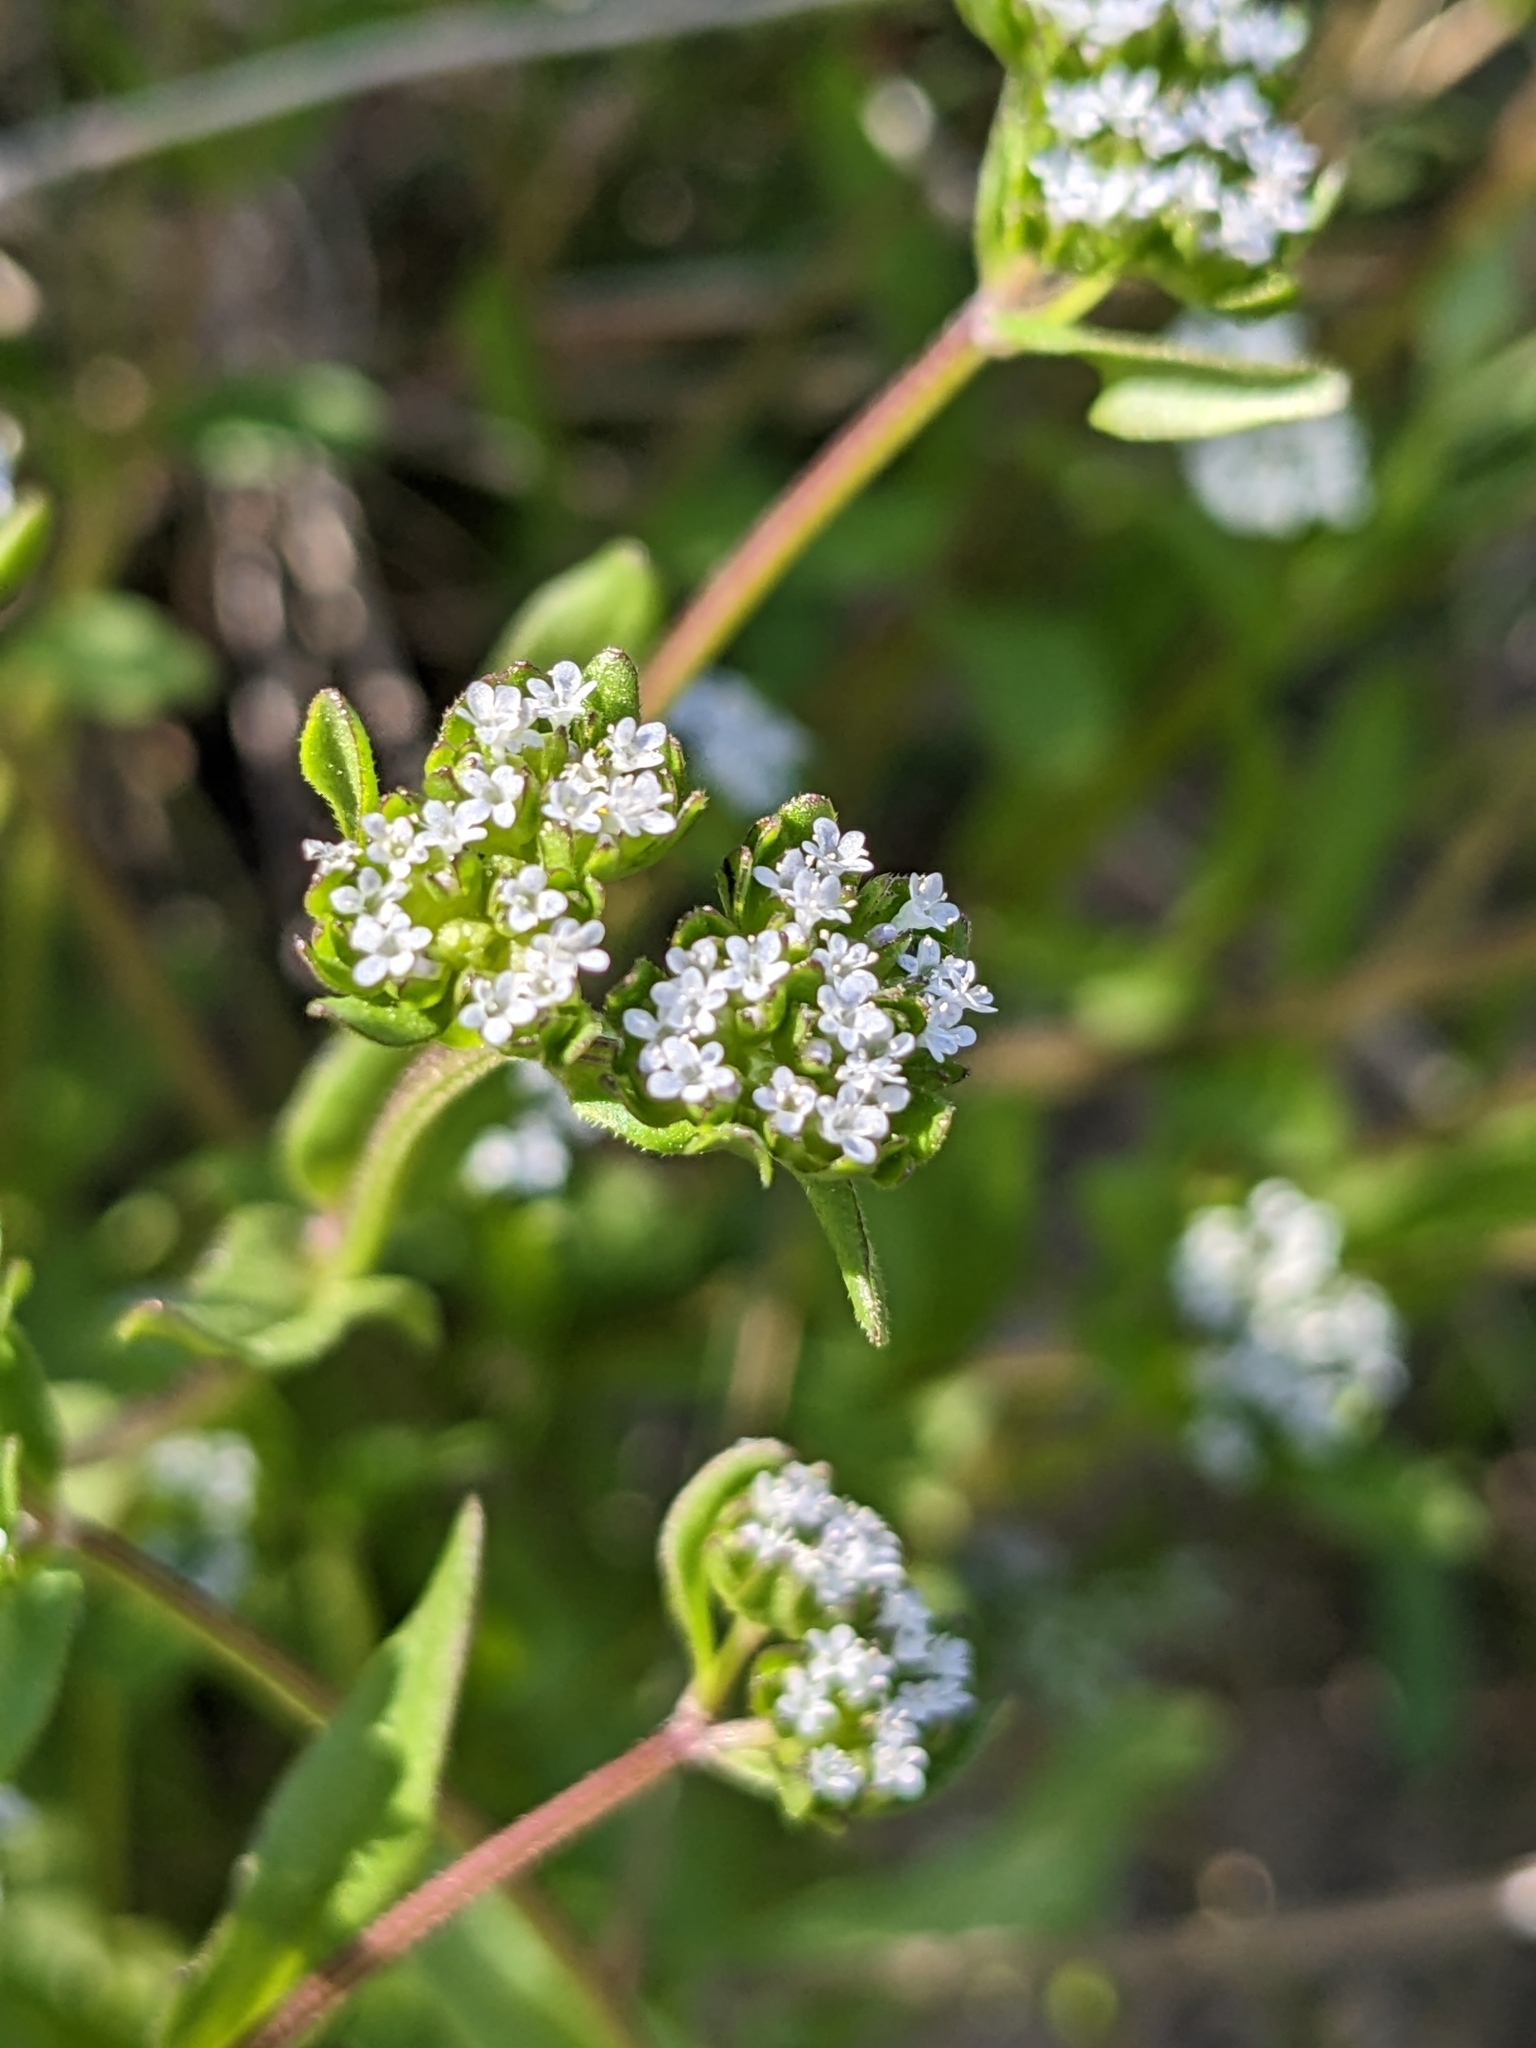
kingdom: Plantae
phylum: Tracheophyta
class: Magnoliopsida
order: Dipsacales
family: Caprifoliaceae
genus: Valerianella
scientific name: Valerianella locusta
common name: Common cornsalad
